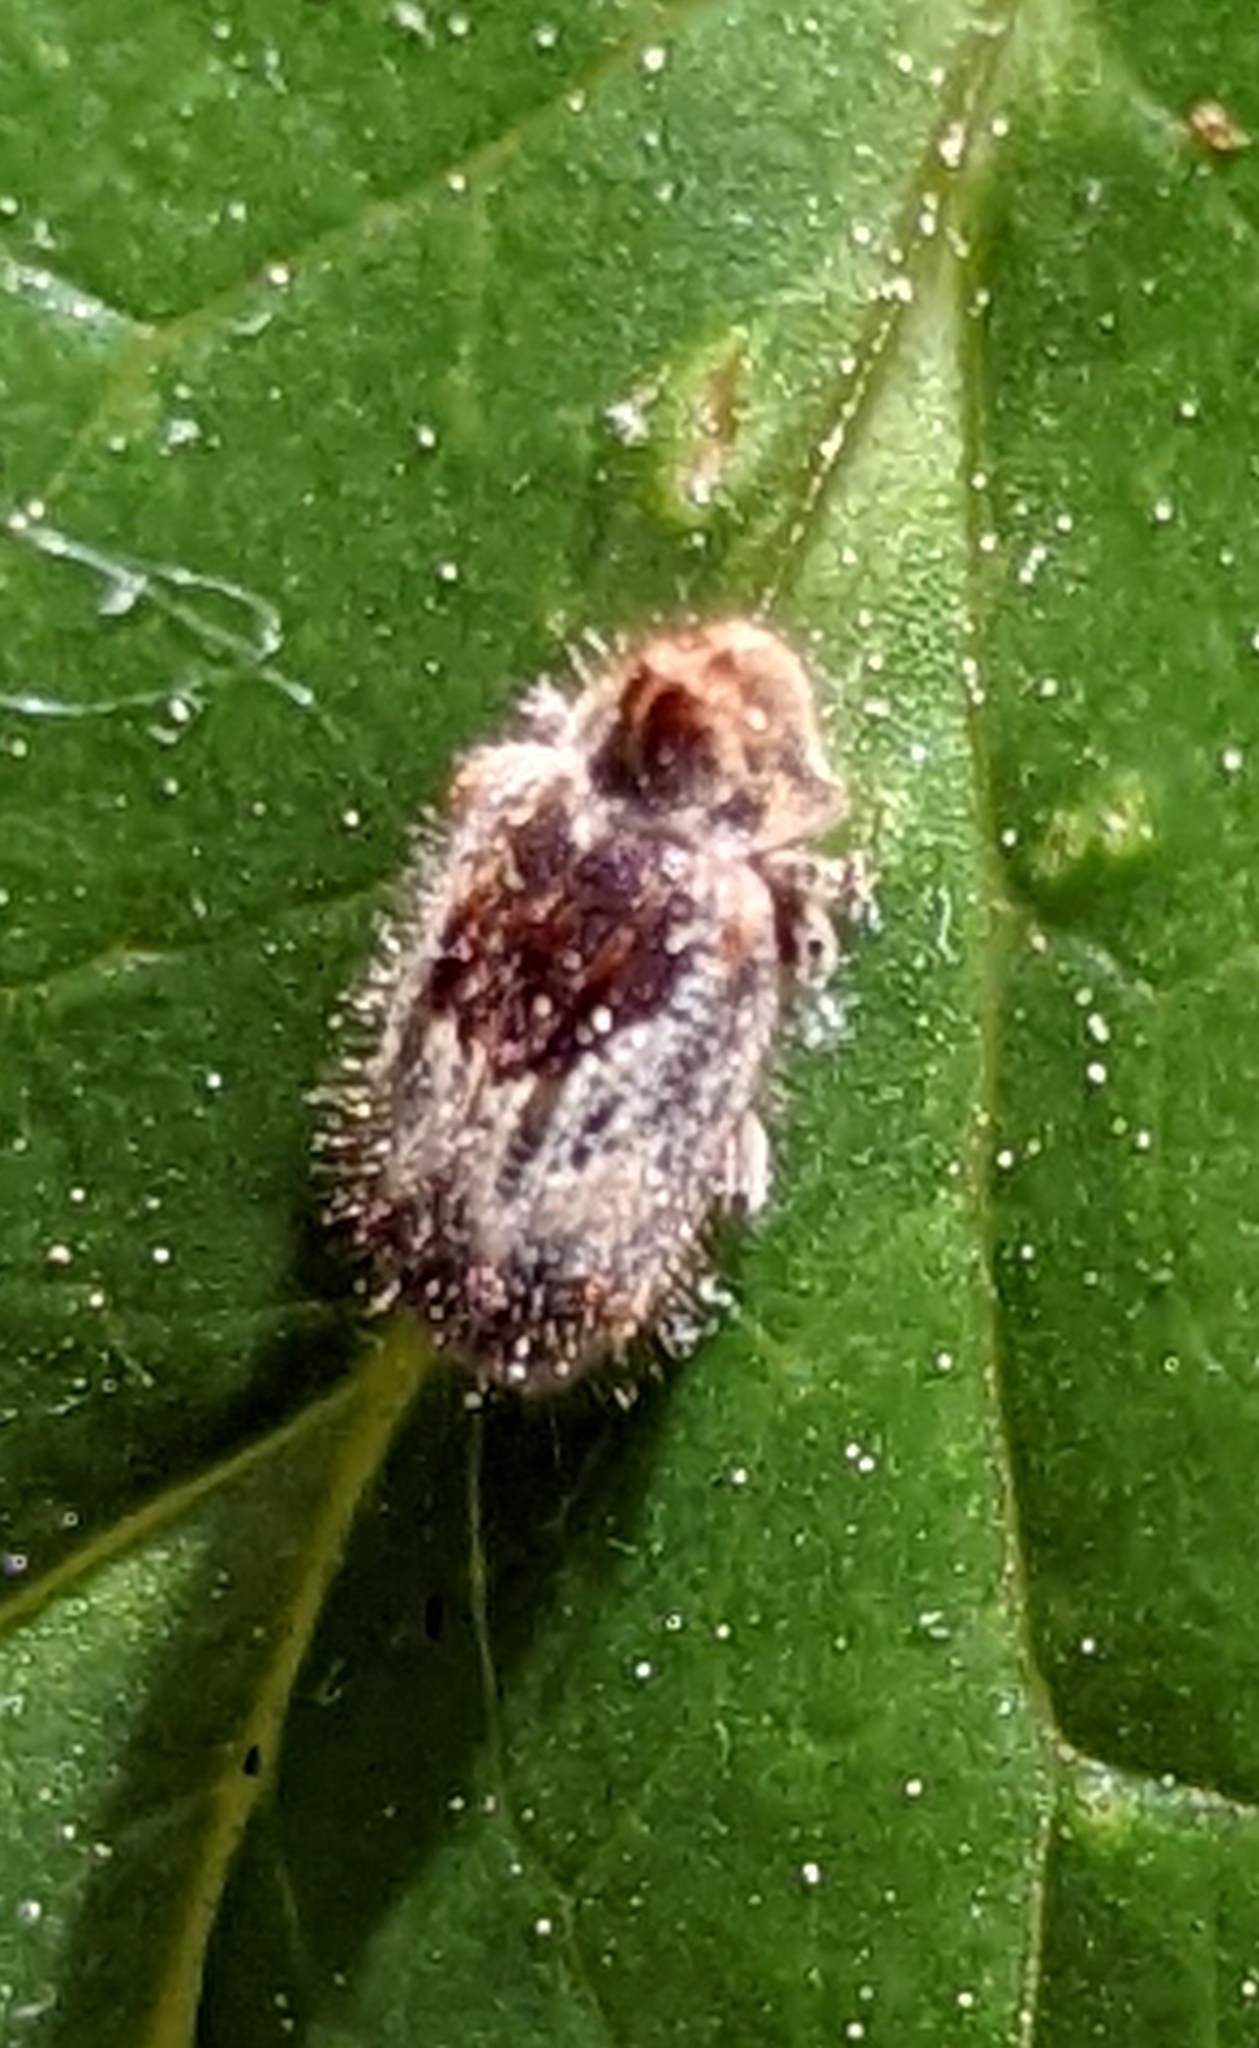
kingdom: Animalia
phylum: Arthropoda
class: Insecta
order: Coleoptera
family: Anobiidae
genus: Trichodesma
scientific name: Trichodesma gibbosa
